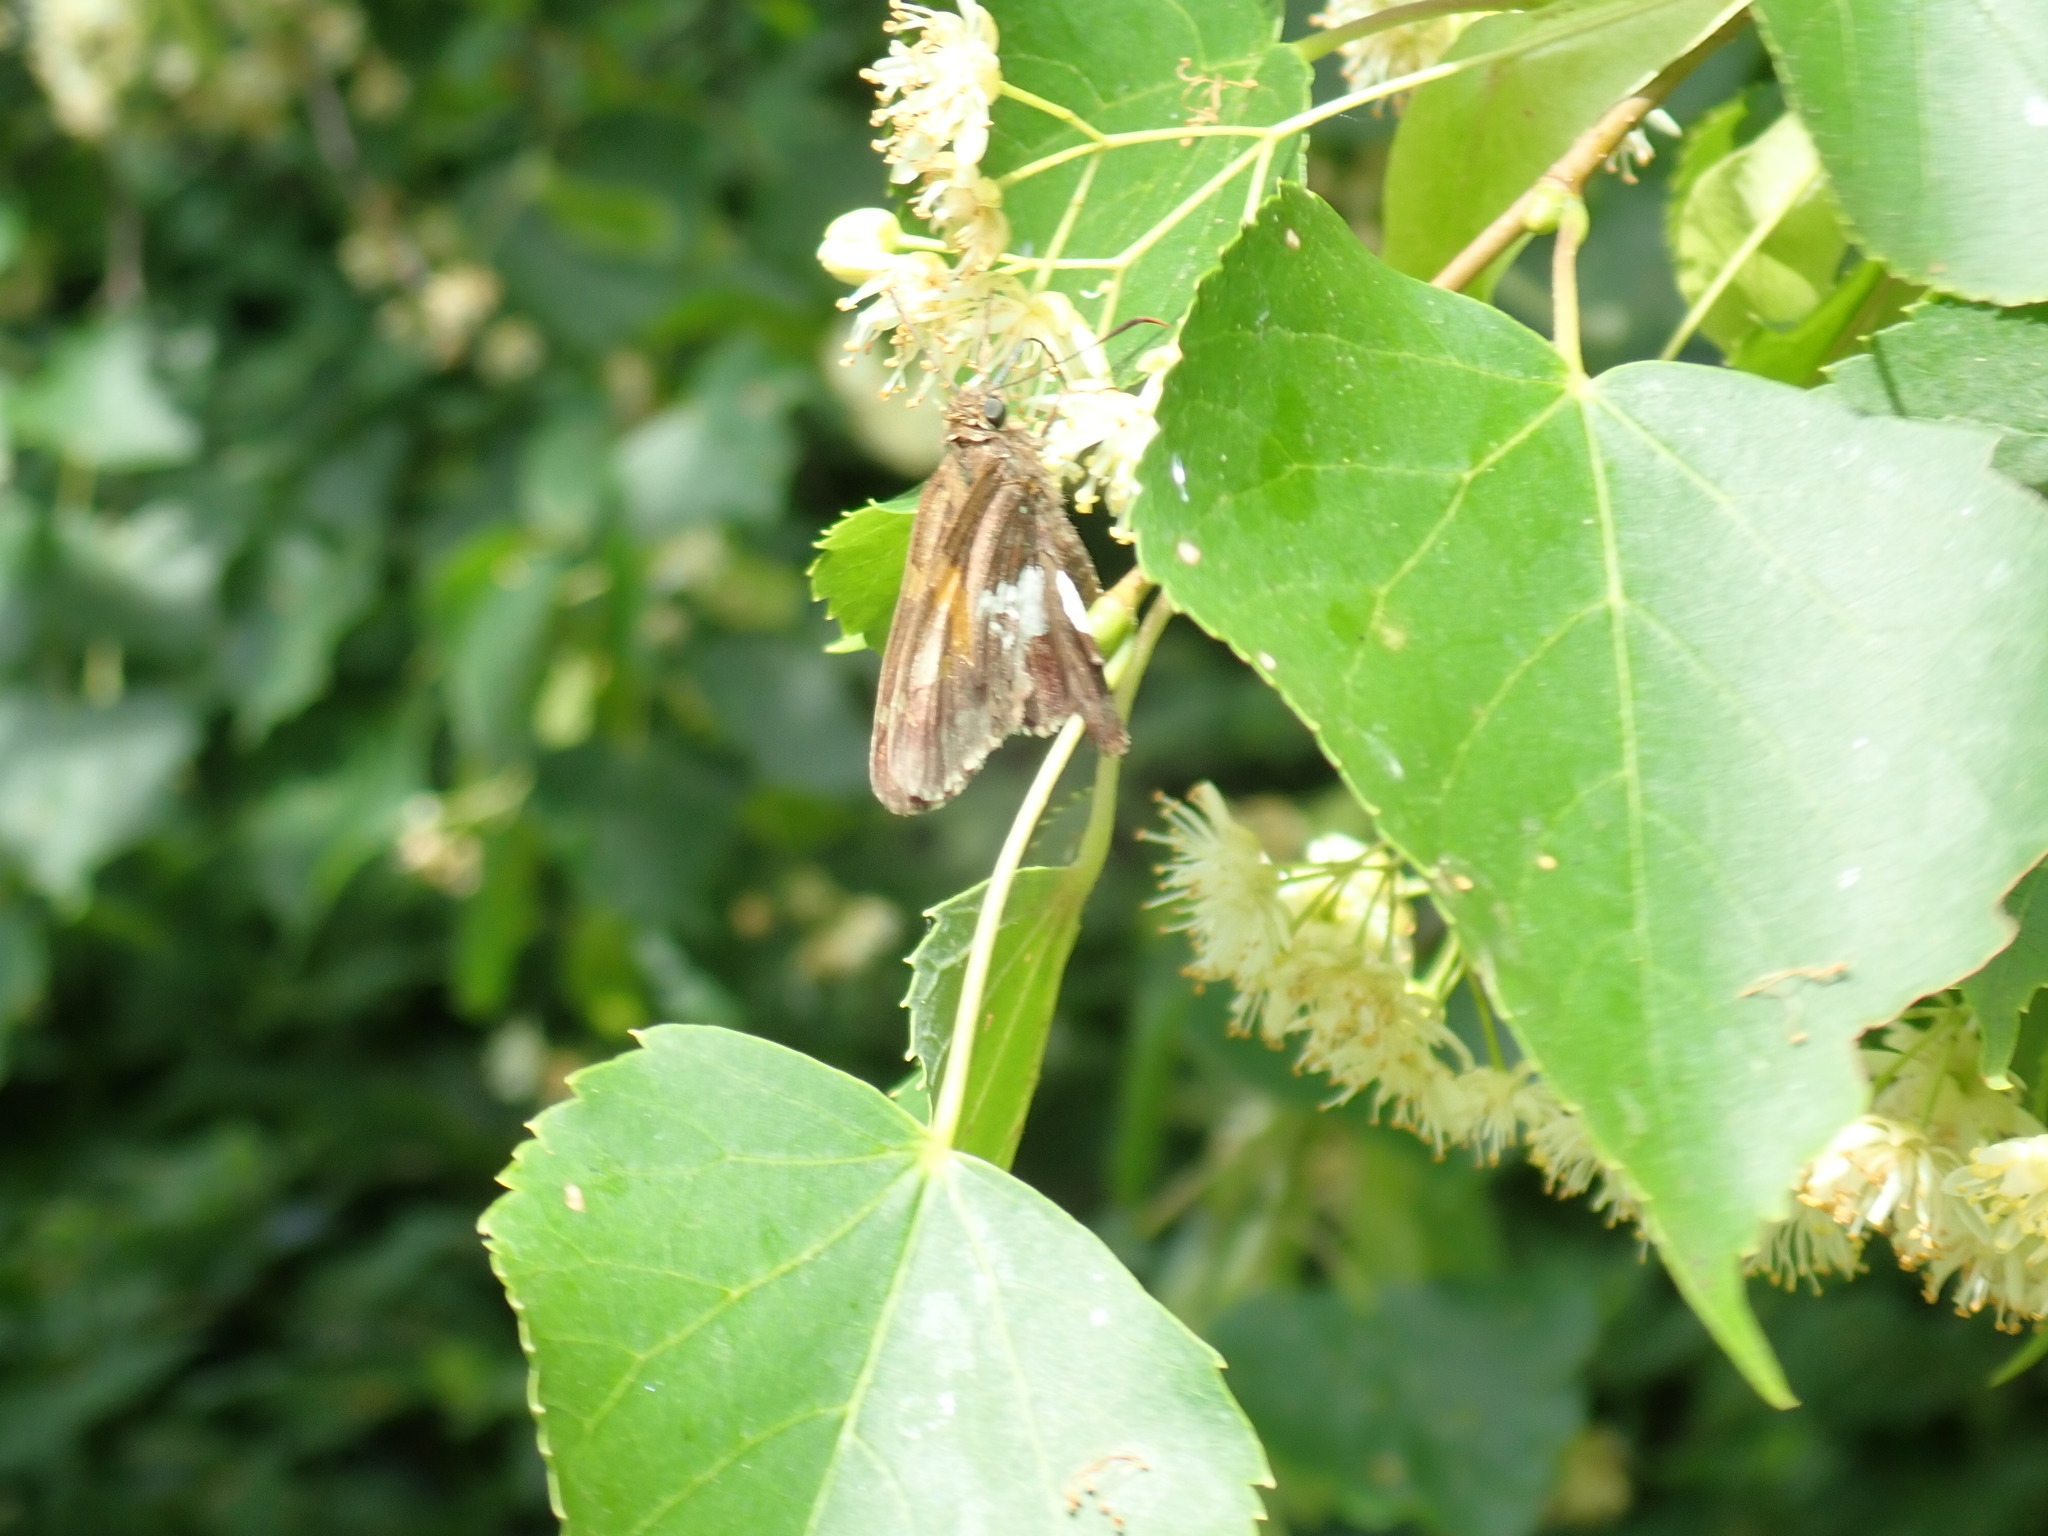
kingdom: Animalia
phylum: Arthropoda
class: Insecta
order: Lepidoptera
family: Hesperiidae
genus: Epargyreus
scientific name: Epargyreus clarus
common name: Silver-spotted skipper
